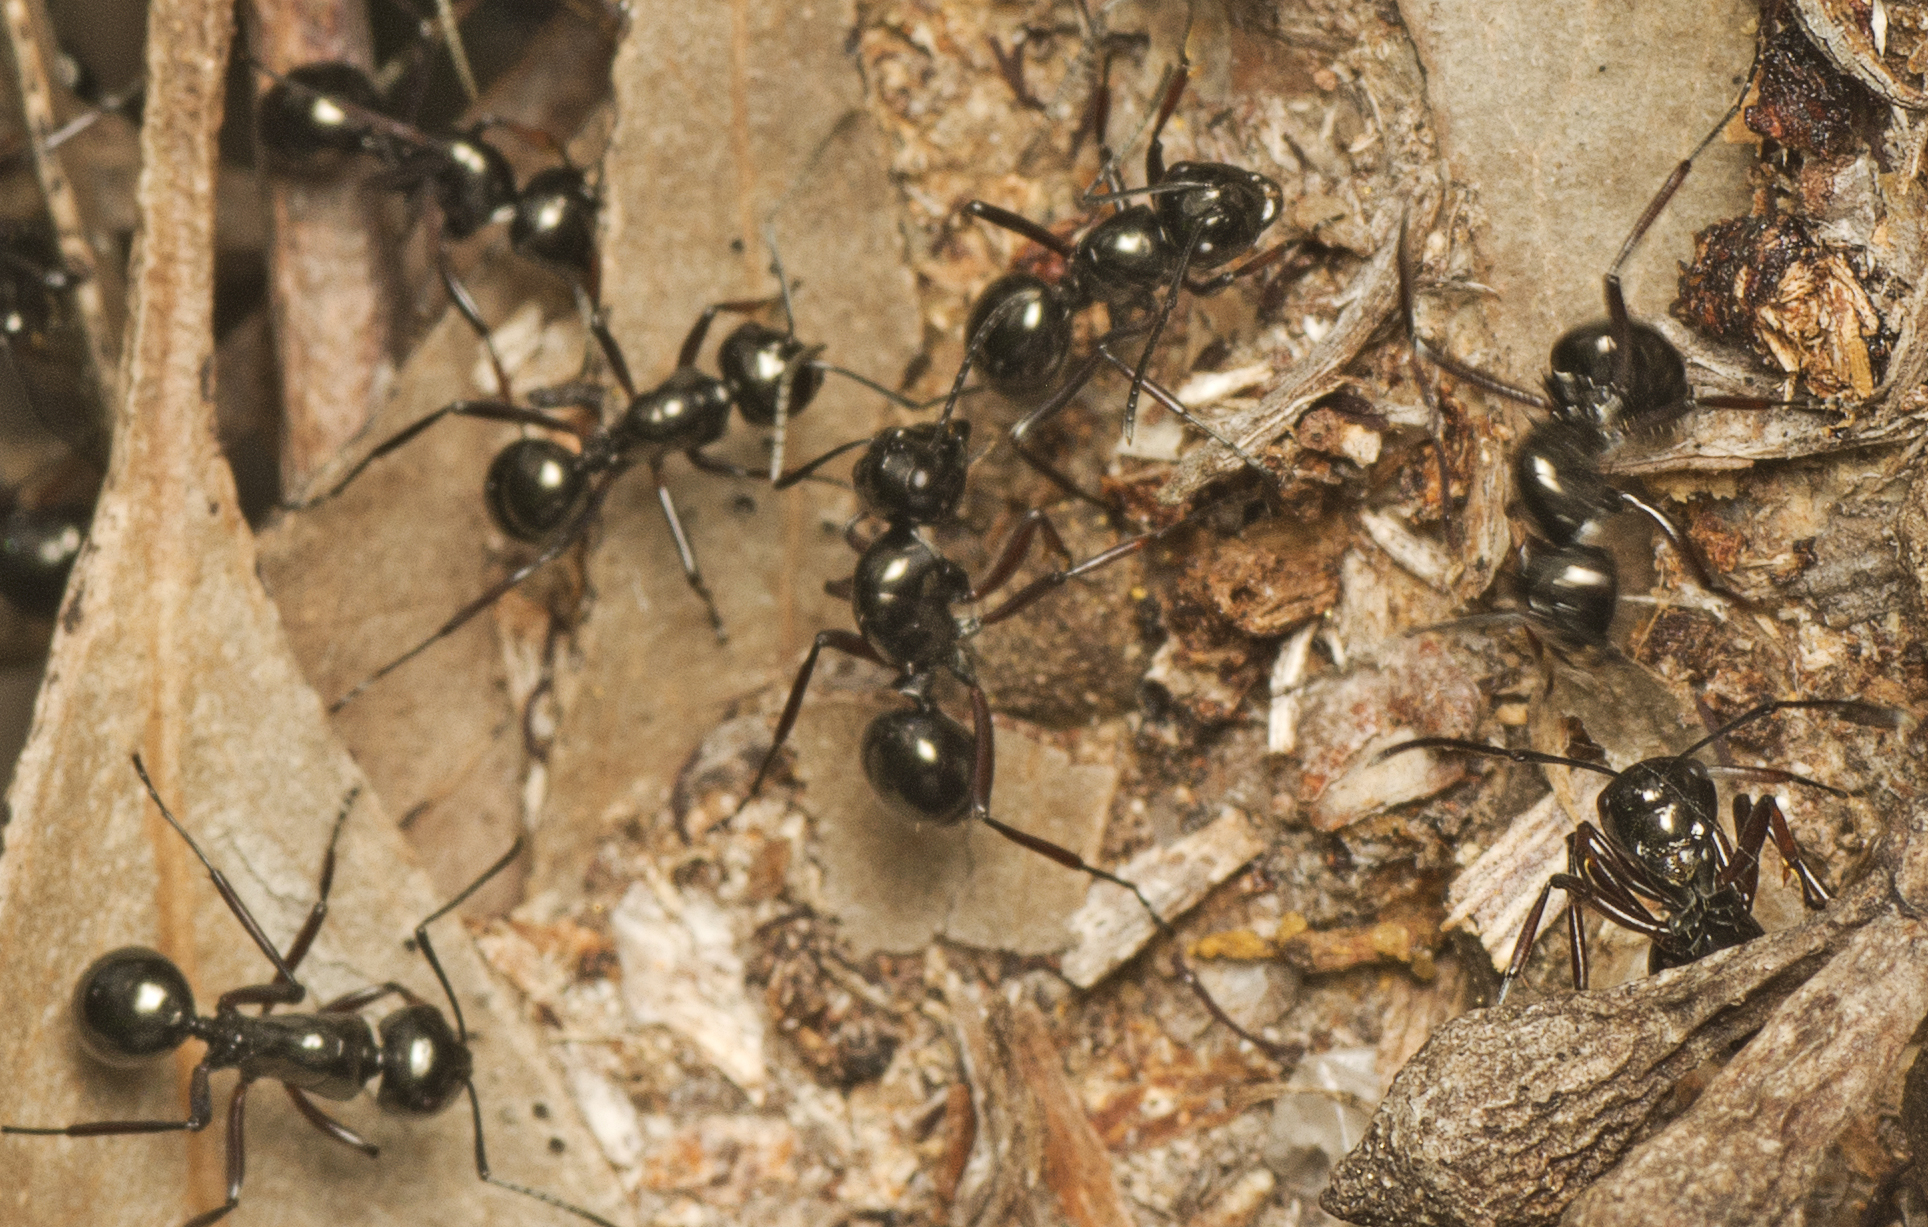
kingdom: Animalia
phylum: Arthropoda
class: Insecta
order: Hymenoptera
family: Formicidae
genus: Polyrhachis
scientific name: Polyrhachis australis
